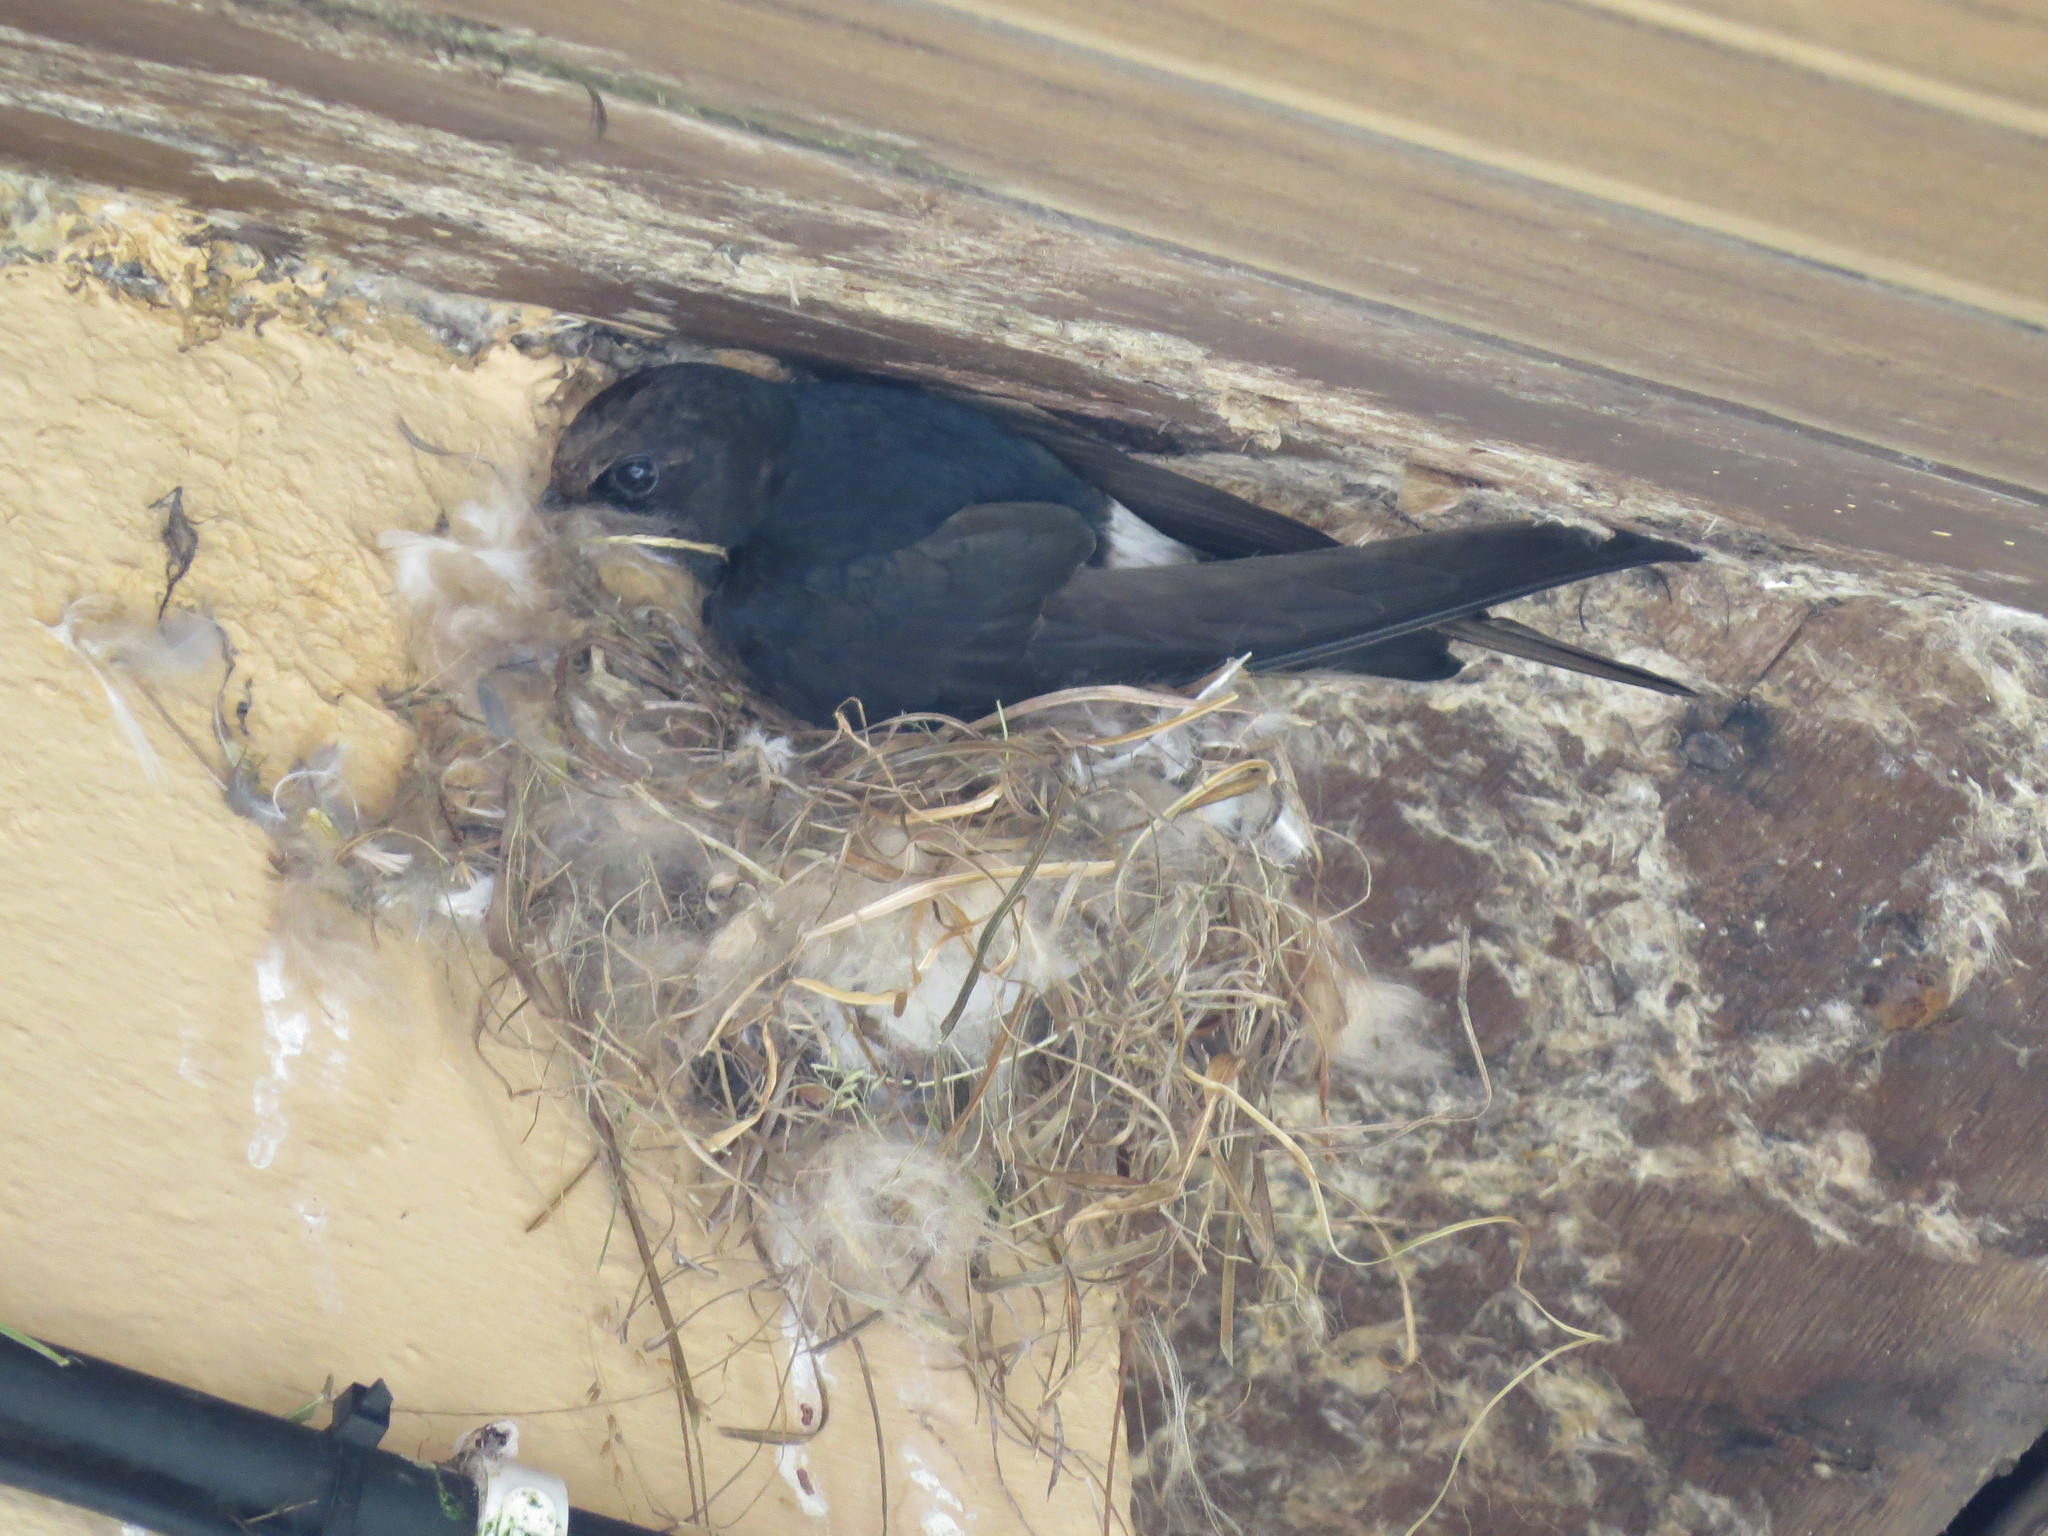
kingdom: Animalia
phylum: Chordata
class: Aves
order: Apodiformes
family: Apodidae
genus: Apus
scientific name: Apus affinis
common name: Little swift
